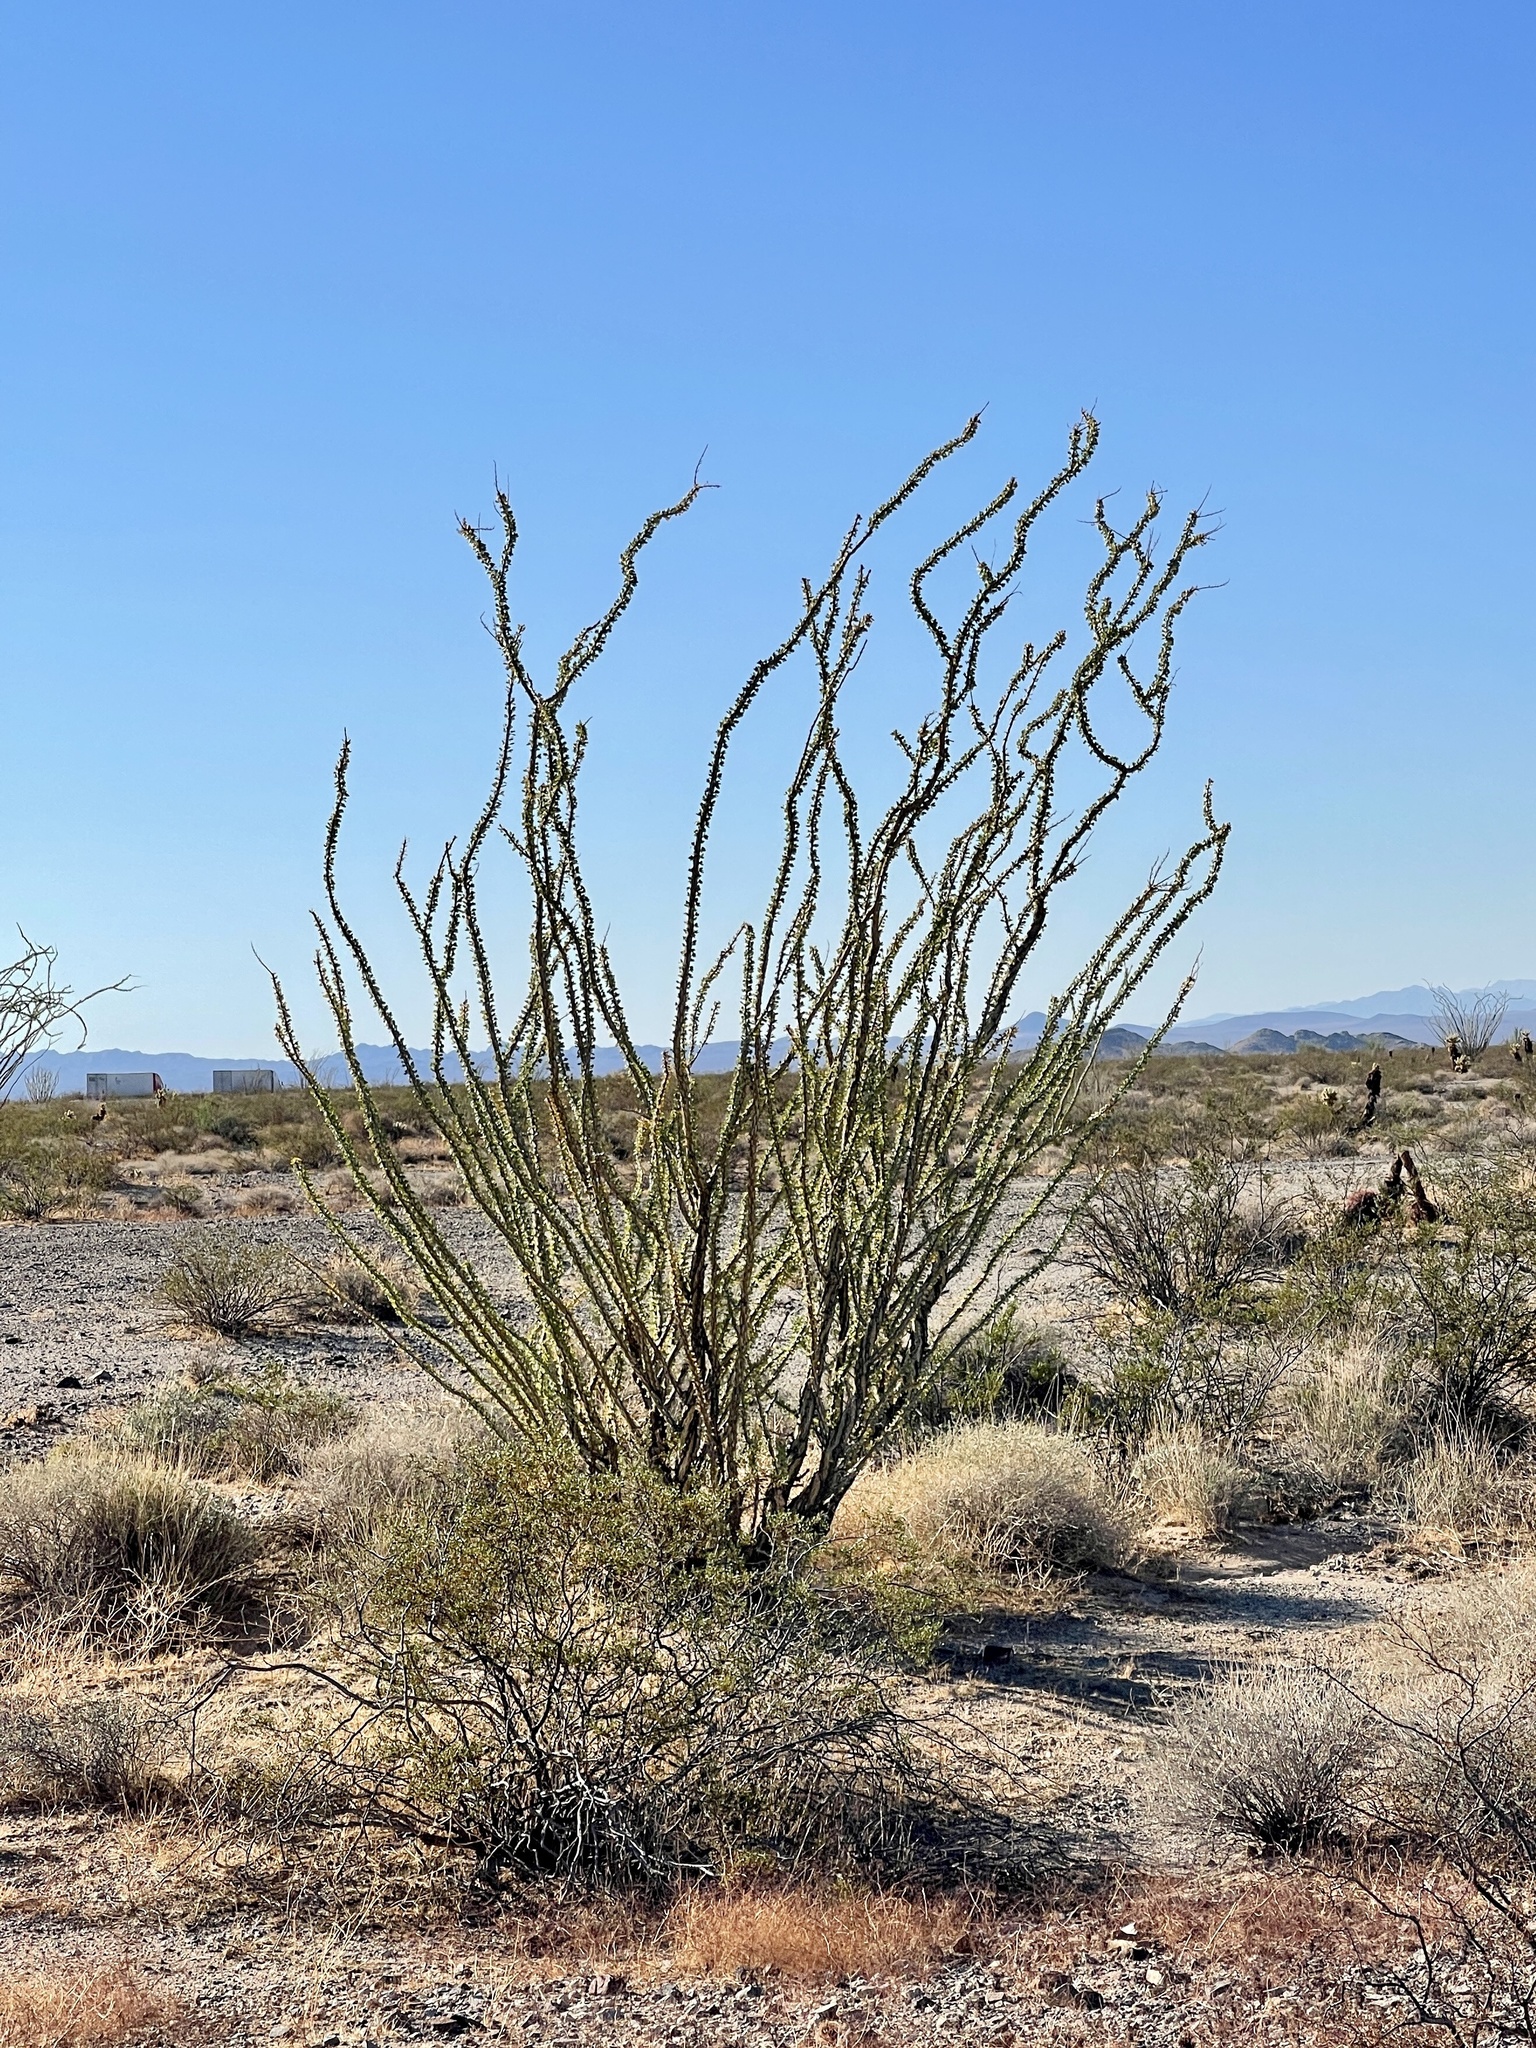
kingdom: Plantae
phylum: Tracheophyta
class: Magnoliopsida
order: Ericales
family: Fouquieriaceae
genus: Fouquieria
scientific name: Fouquieria splendens
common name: Vine-cactus
